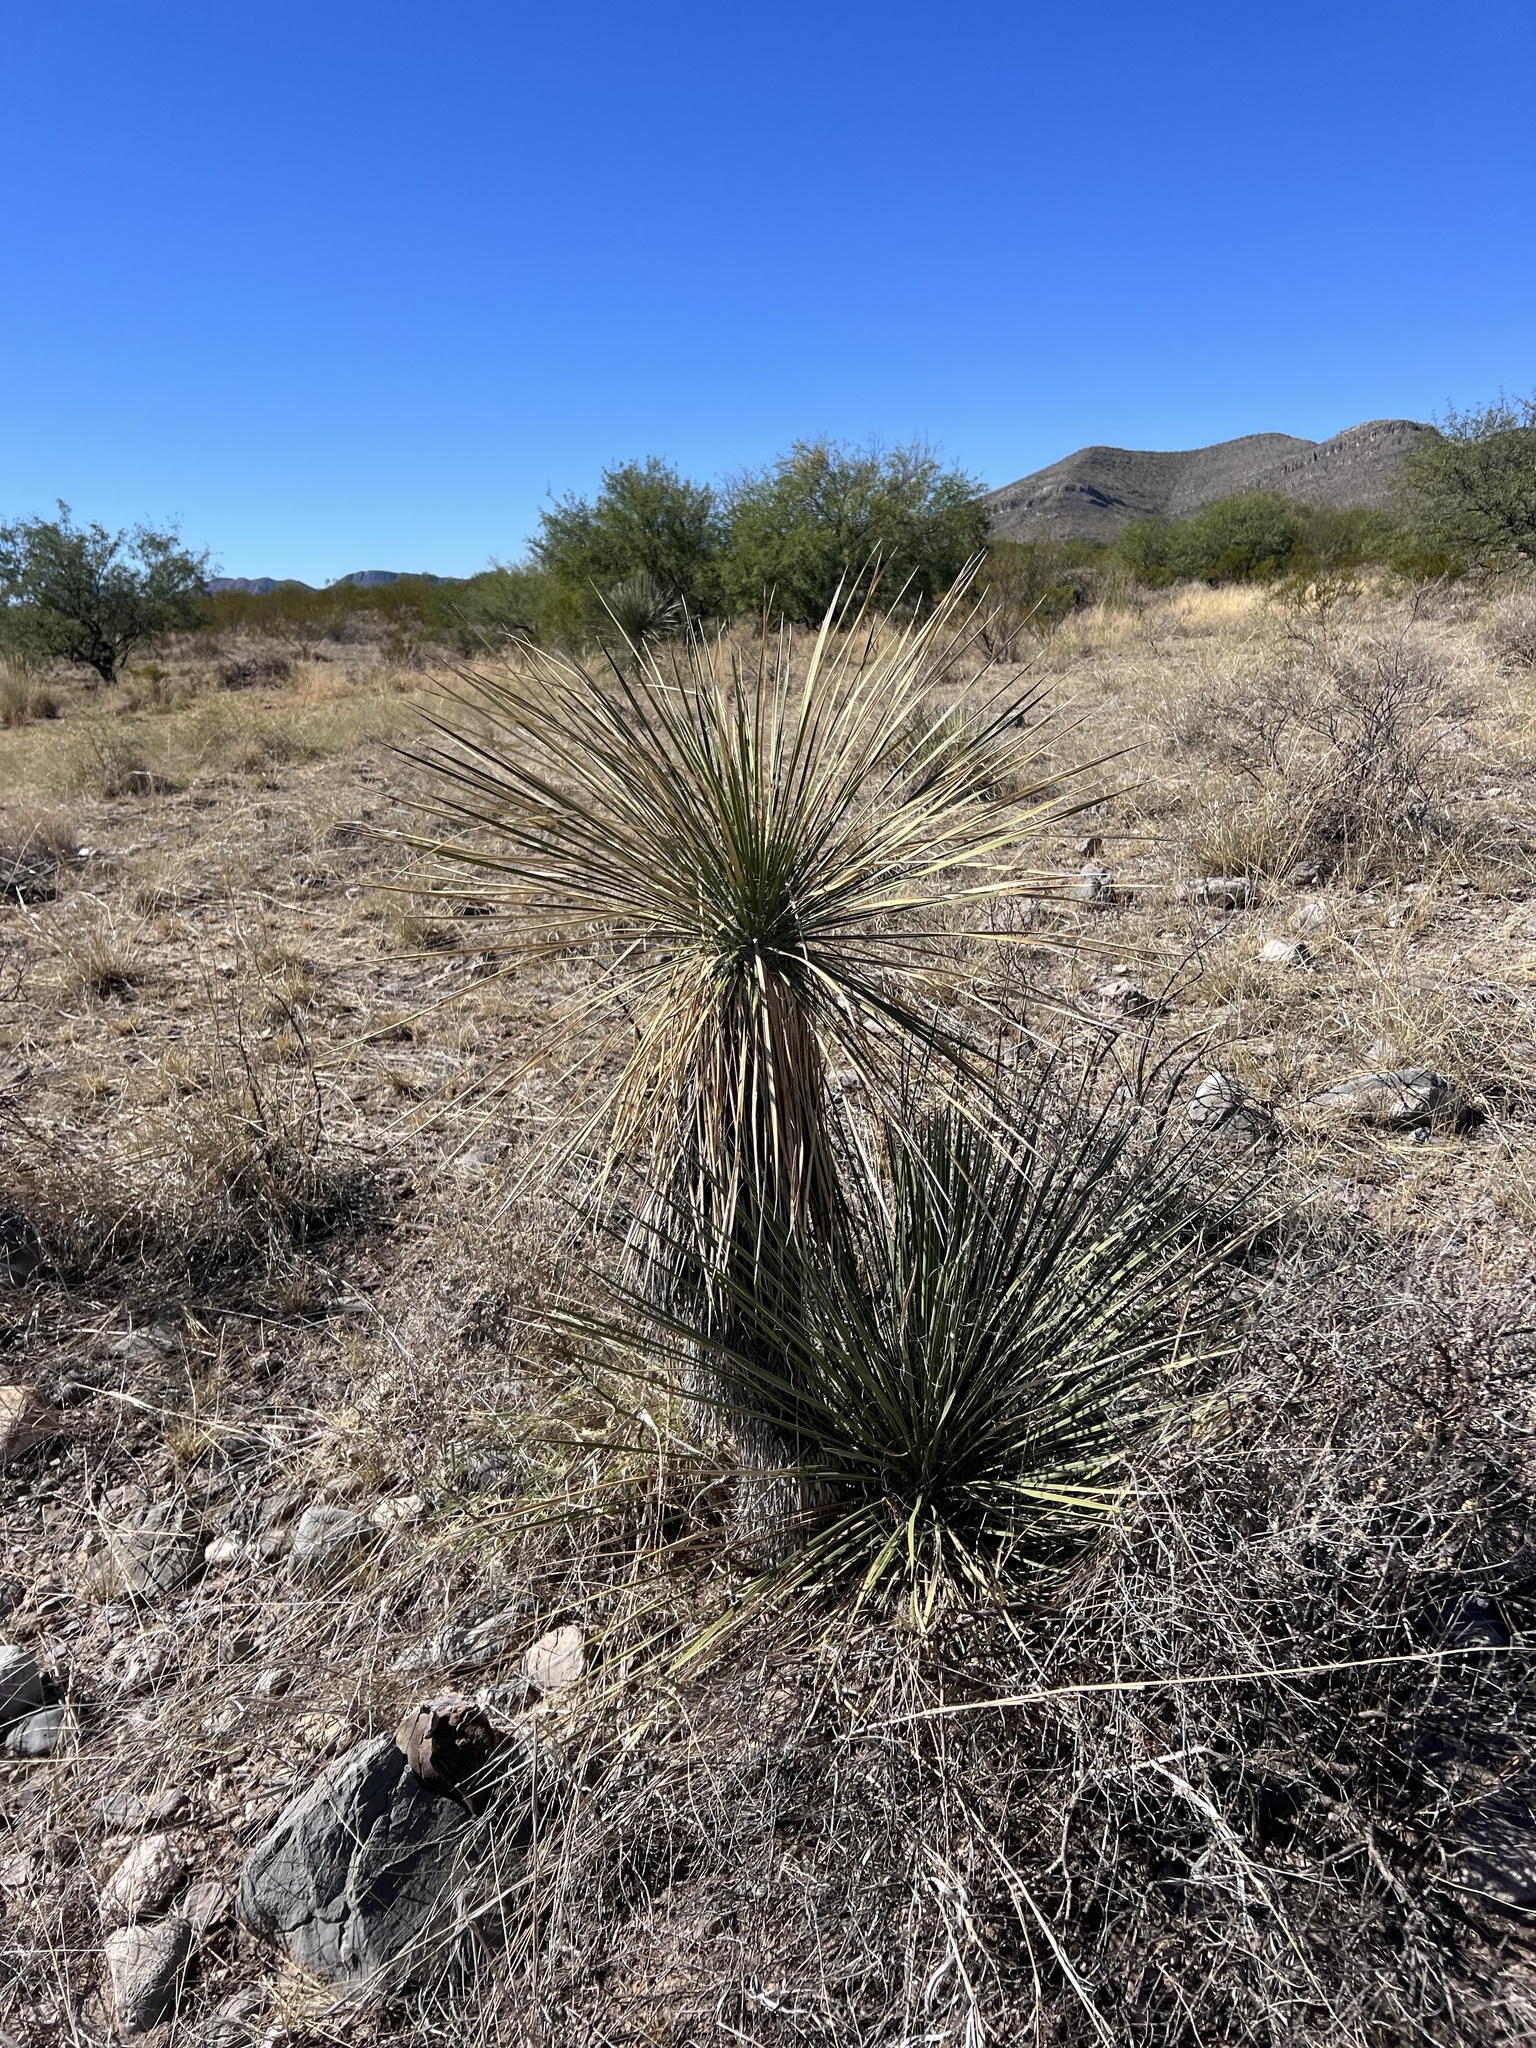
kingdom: Plantae
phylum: Tracheophyta
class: Liliopsida
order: Asparagales
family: Asparagaceae
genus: Yucca
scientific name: Yucca elata
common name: Palmella
